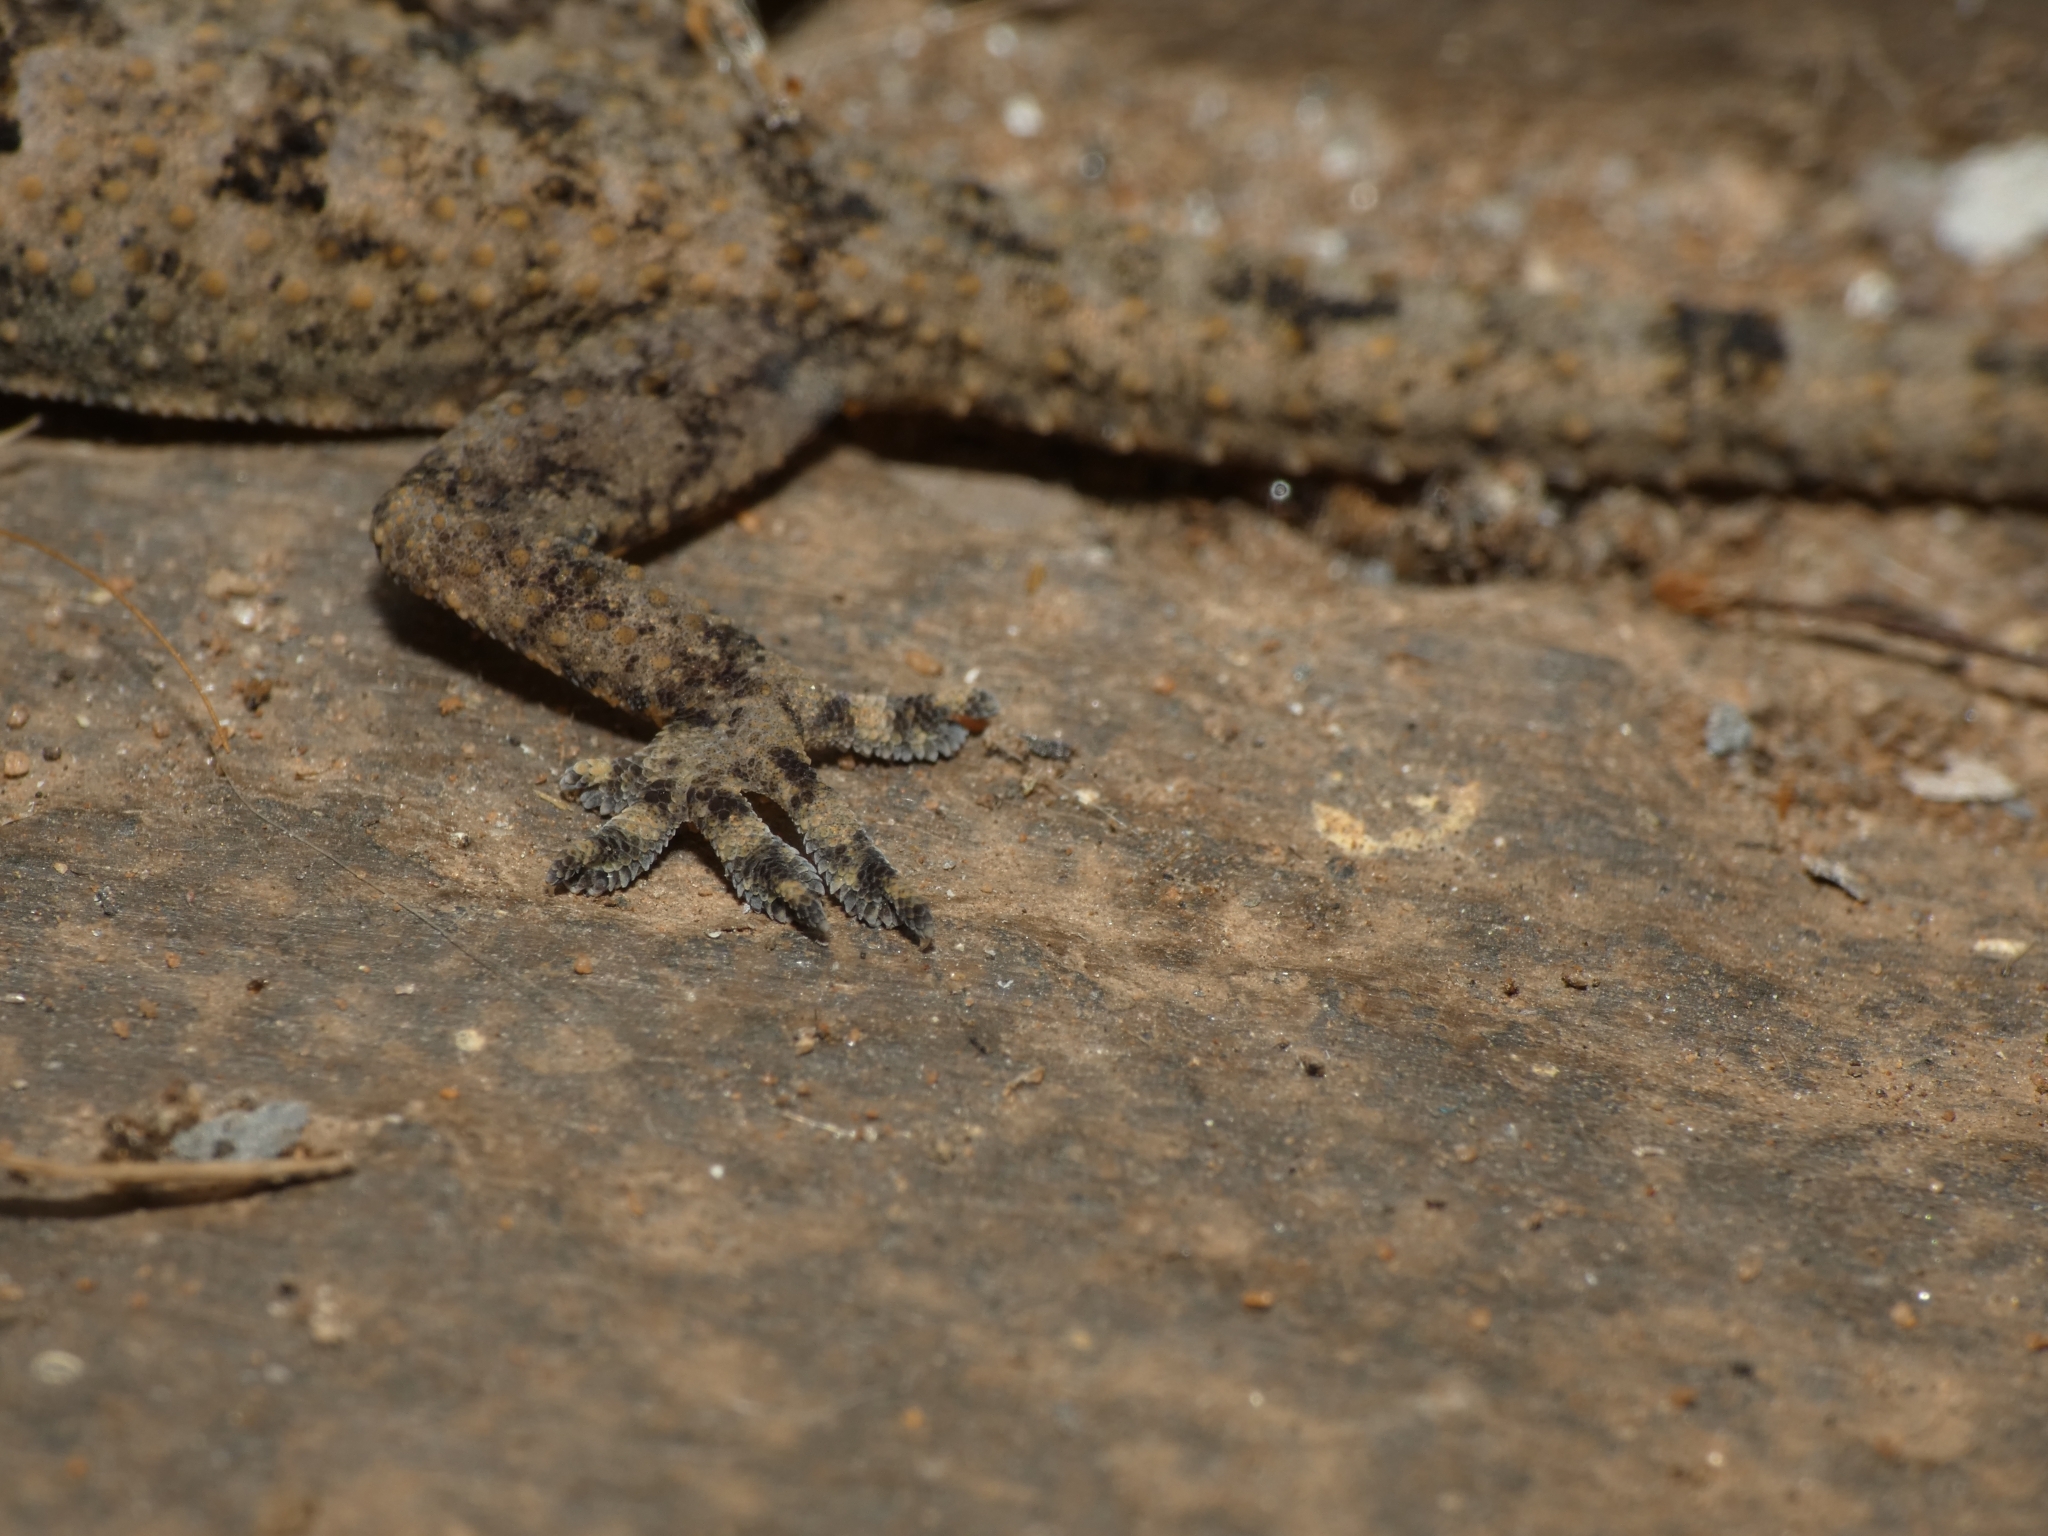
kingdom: Animalia
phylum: Chordata
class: Squamata
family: Gekkonidae
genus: Hemidactylus
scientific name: Hemidactylus mabouia
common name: House gecko
